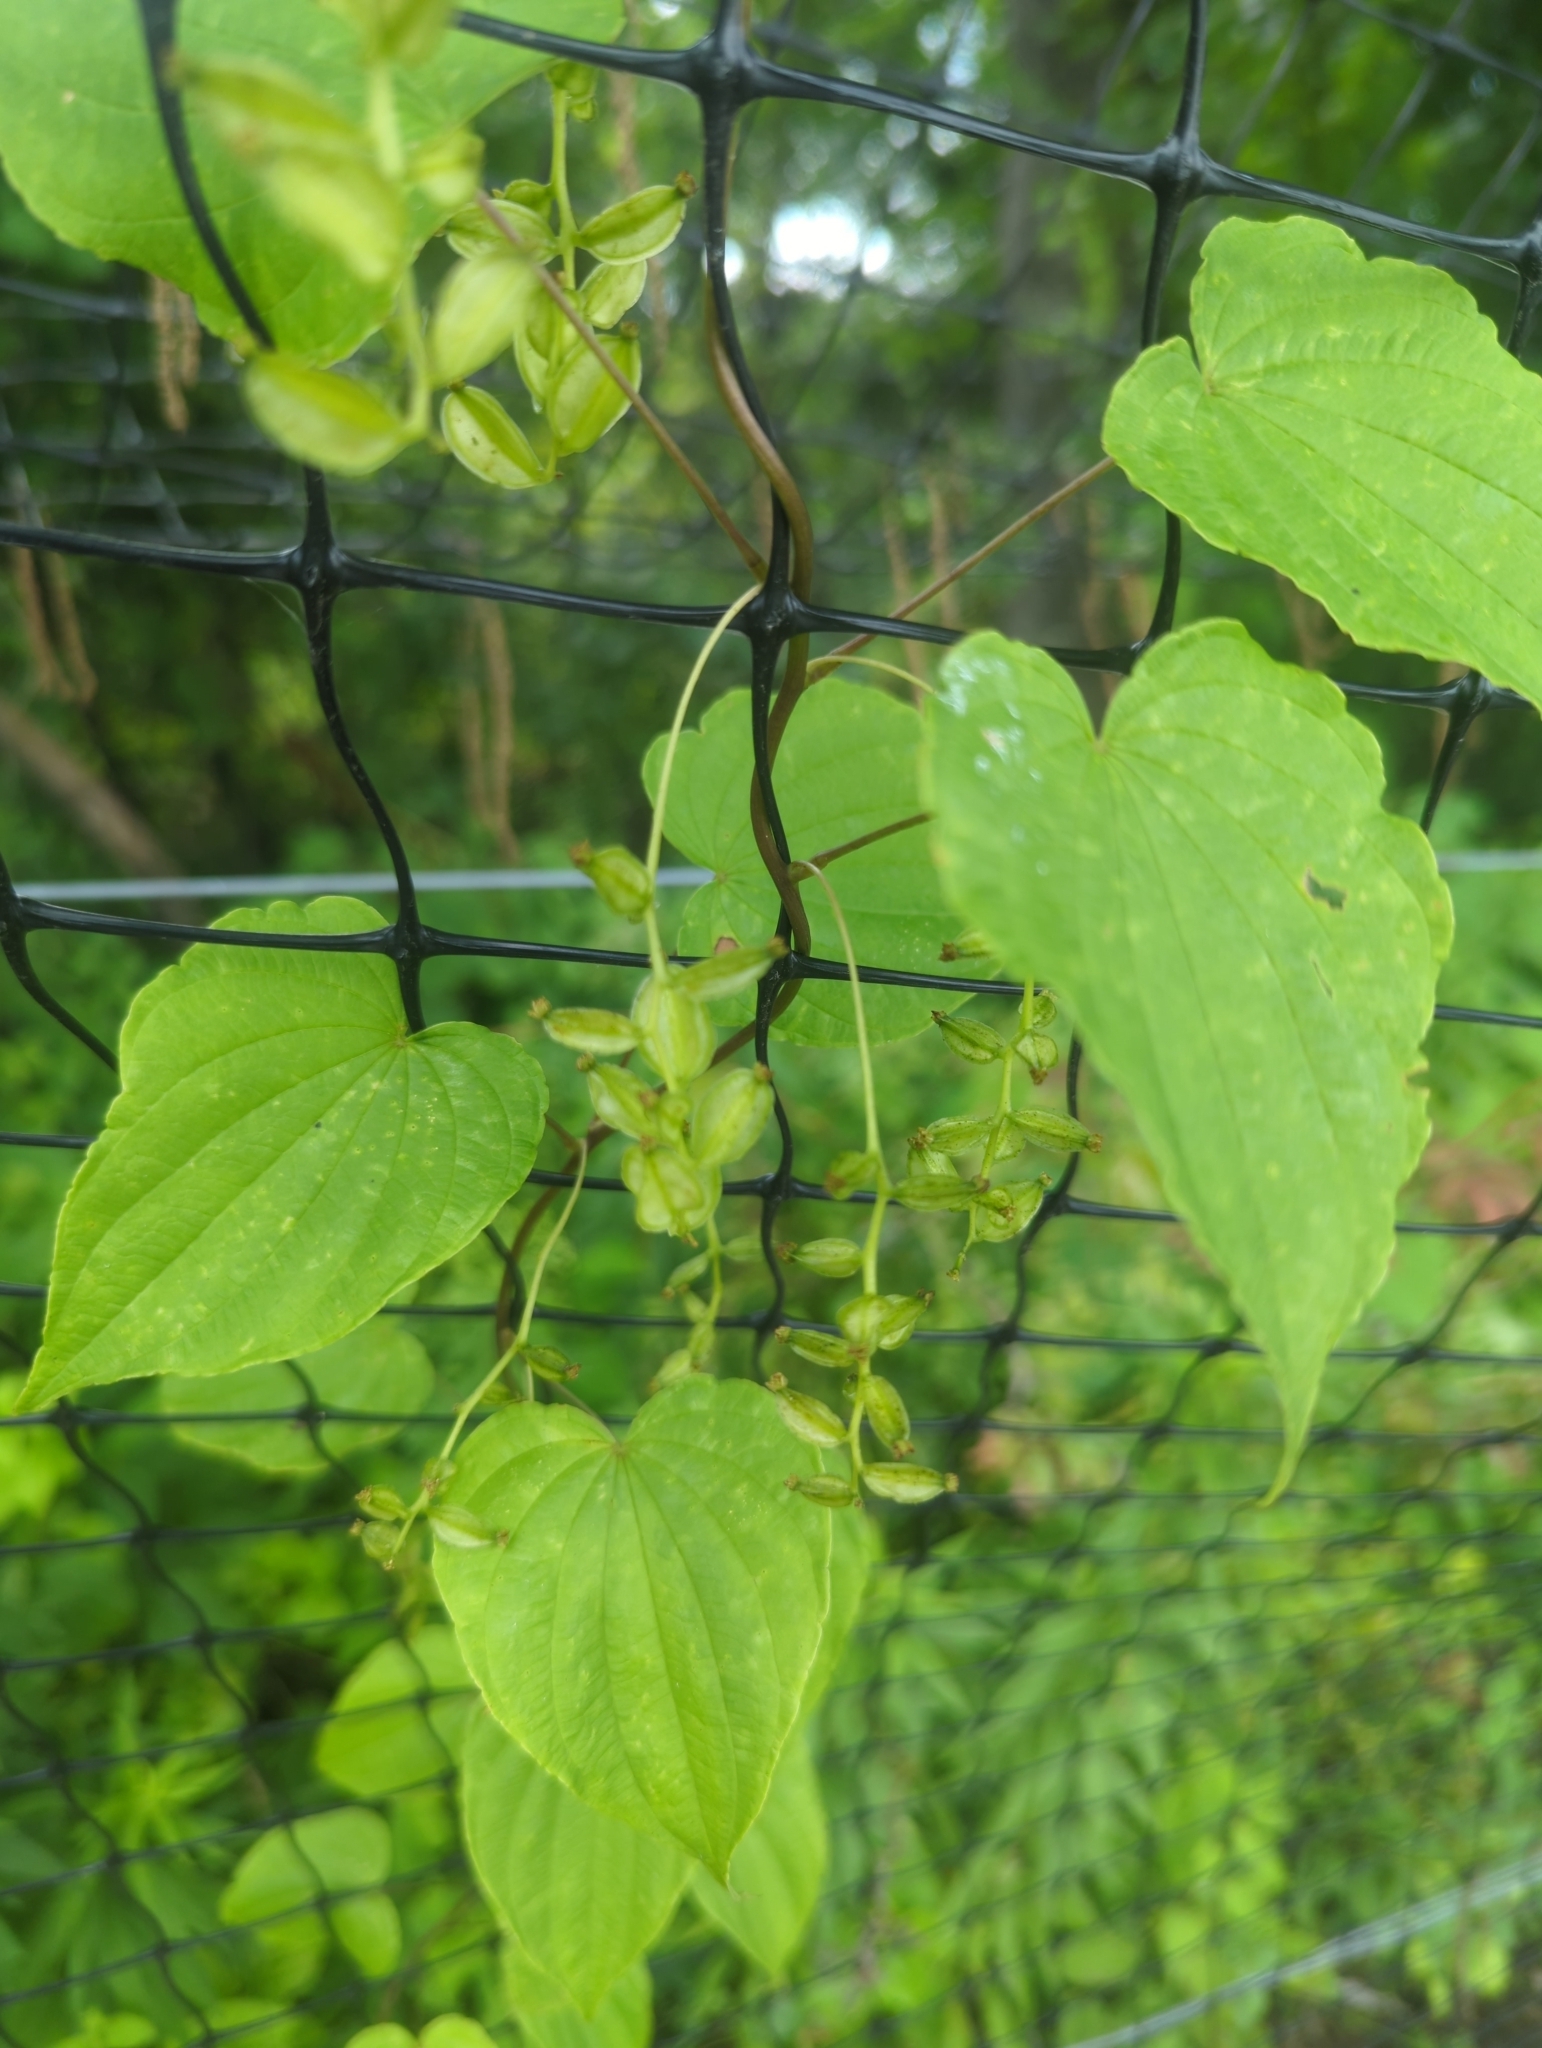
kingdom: Plantae
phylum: Tracheophyta
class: Liliopsida
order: Dioscoreales
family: Dioscoreaceae
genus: Dioscorea
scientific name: Dioscorea villosa
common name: Wild yam
